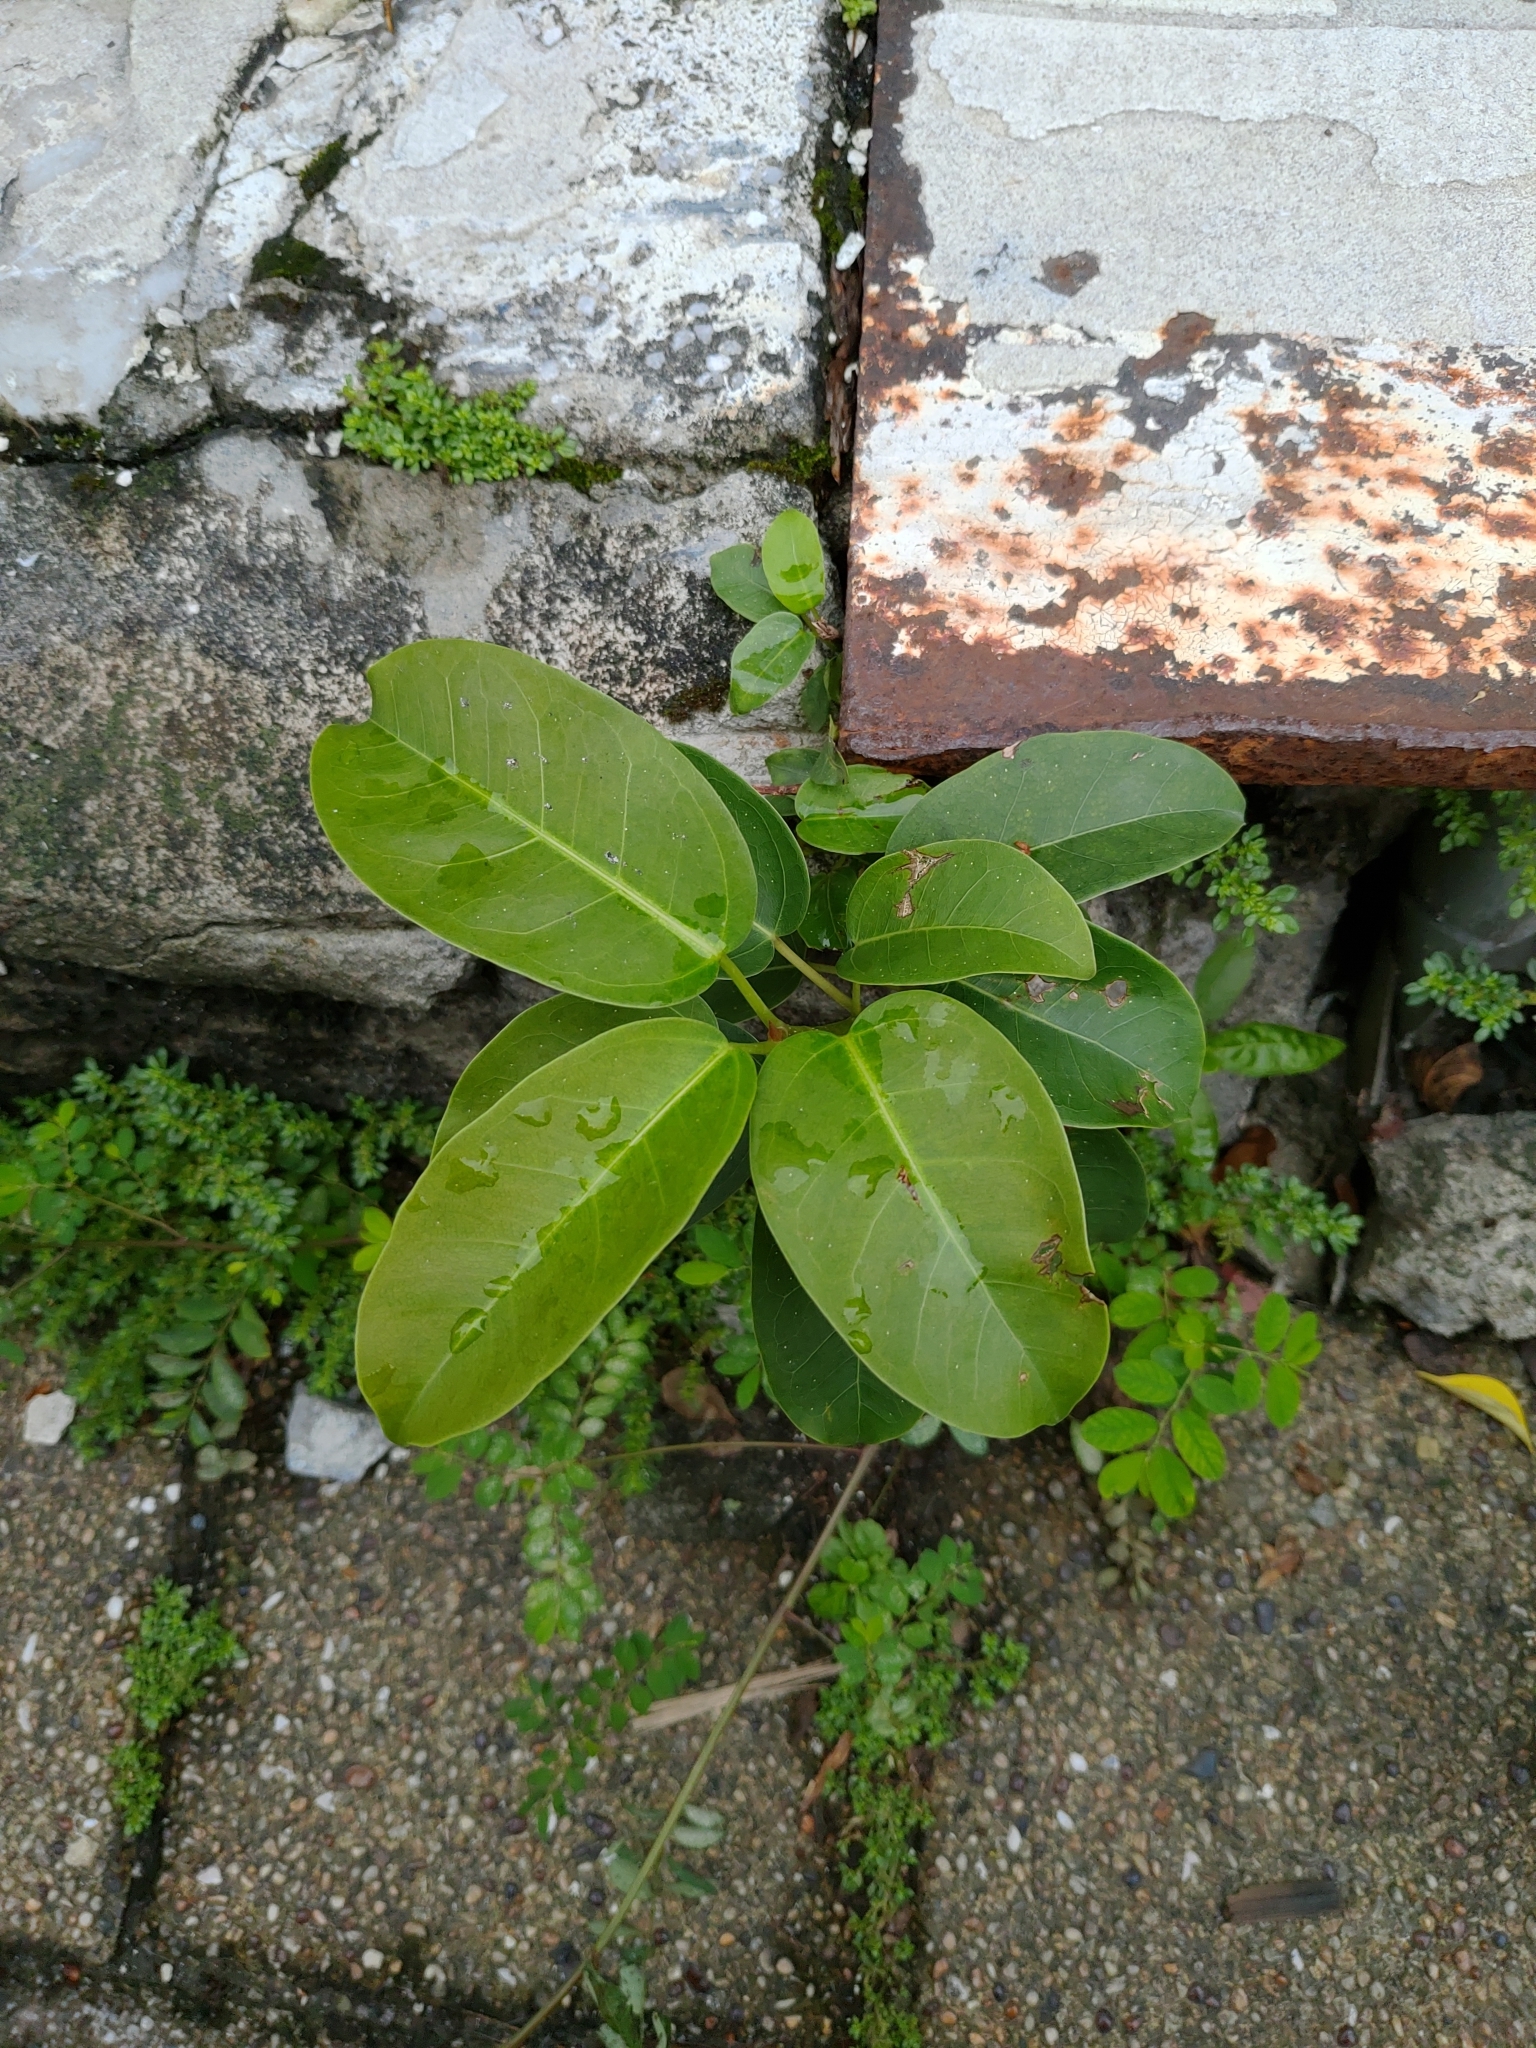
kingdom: Plantae
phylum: Tracheophyta
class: Magnoliopsida
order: Rosales
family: Moraceae
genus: Ficus
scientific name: Ficus subpisocarpa
